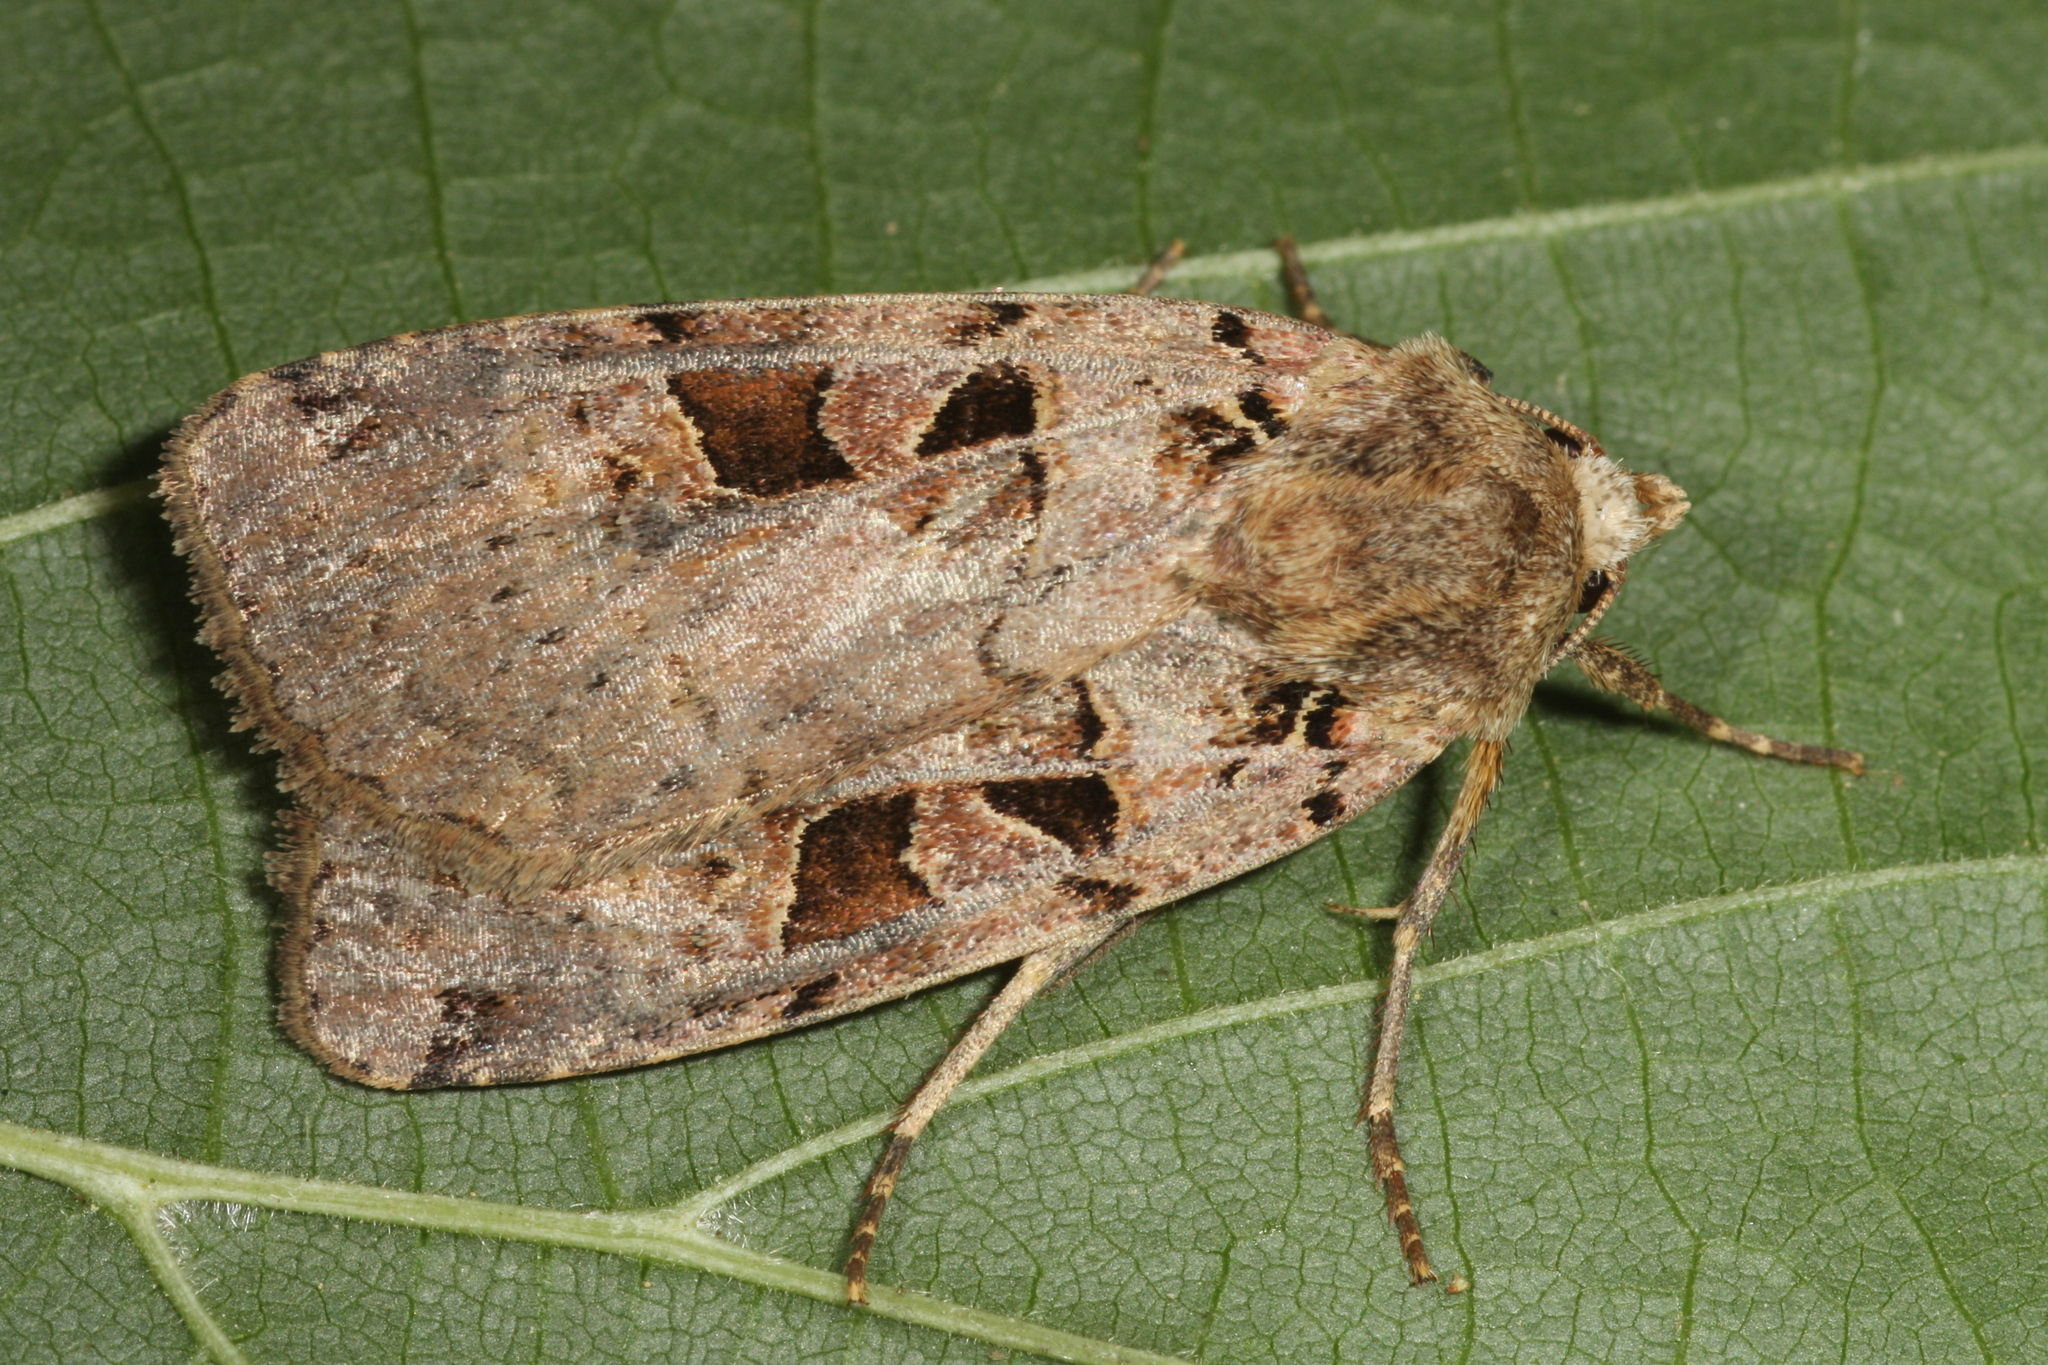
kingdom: Animalia
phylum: Arthropoda
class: Insecta
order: Lepidoptera
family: Noctuidae
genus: Xestia
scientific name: Xestia triangulum
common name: Double square-spot
